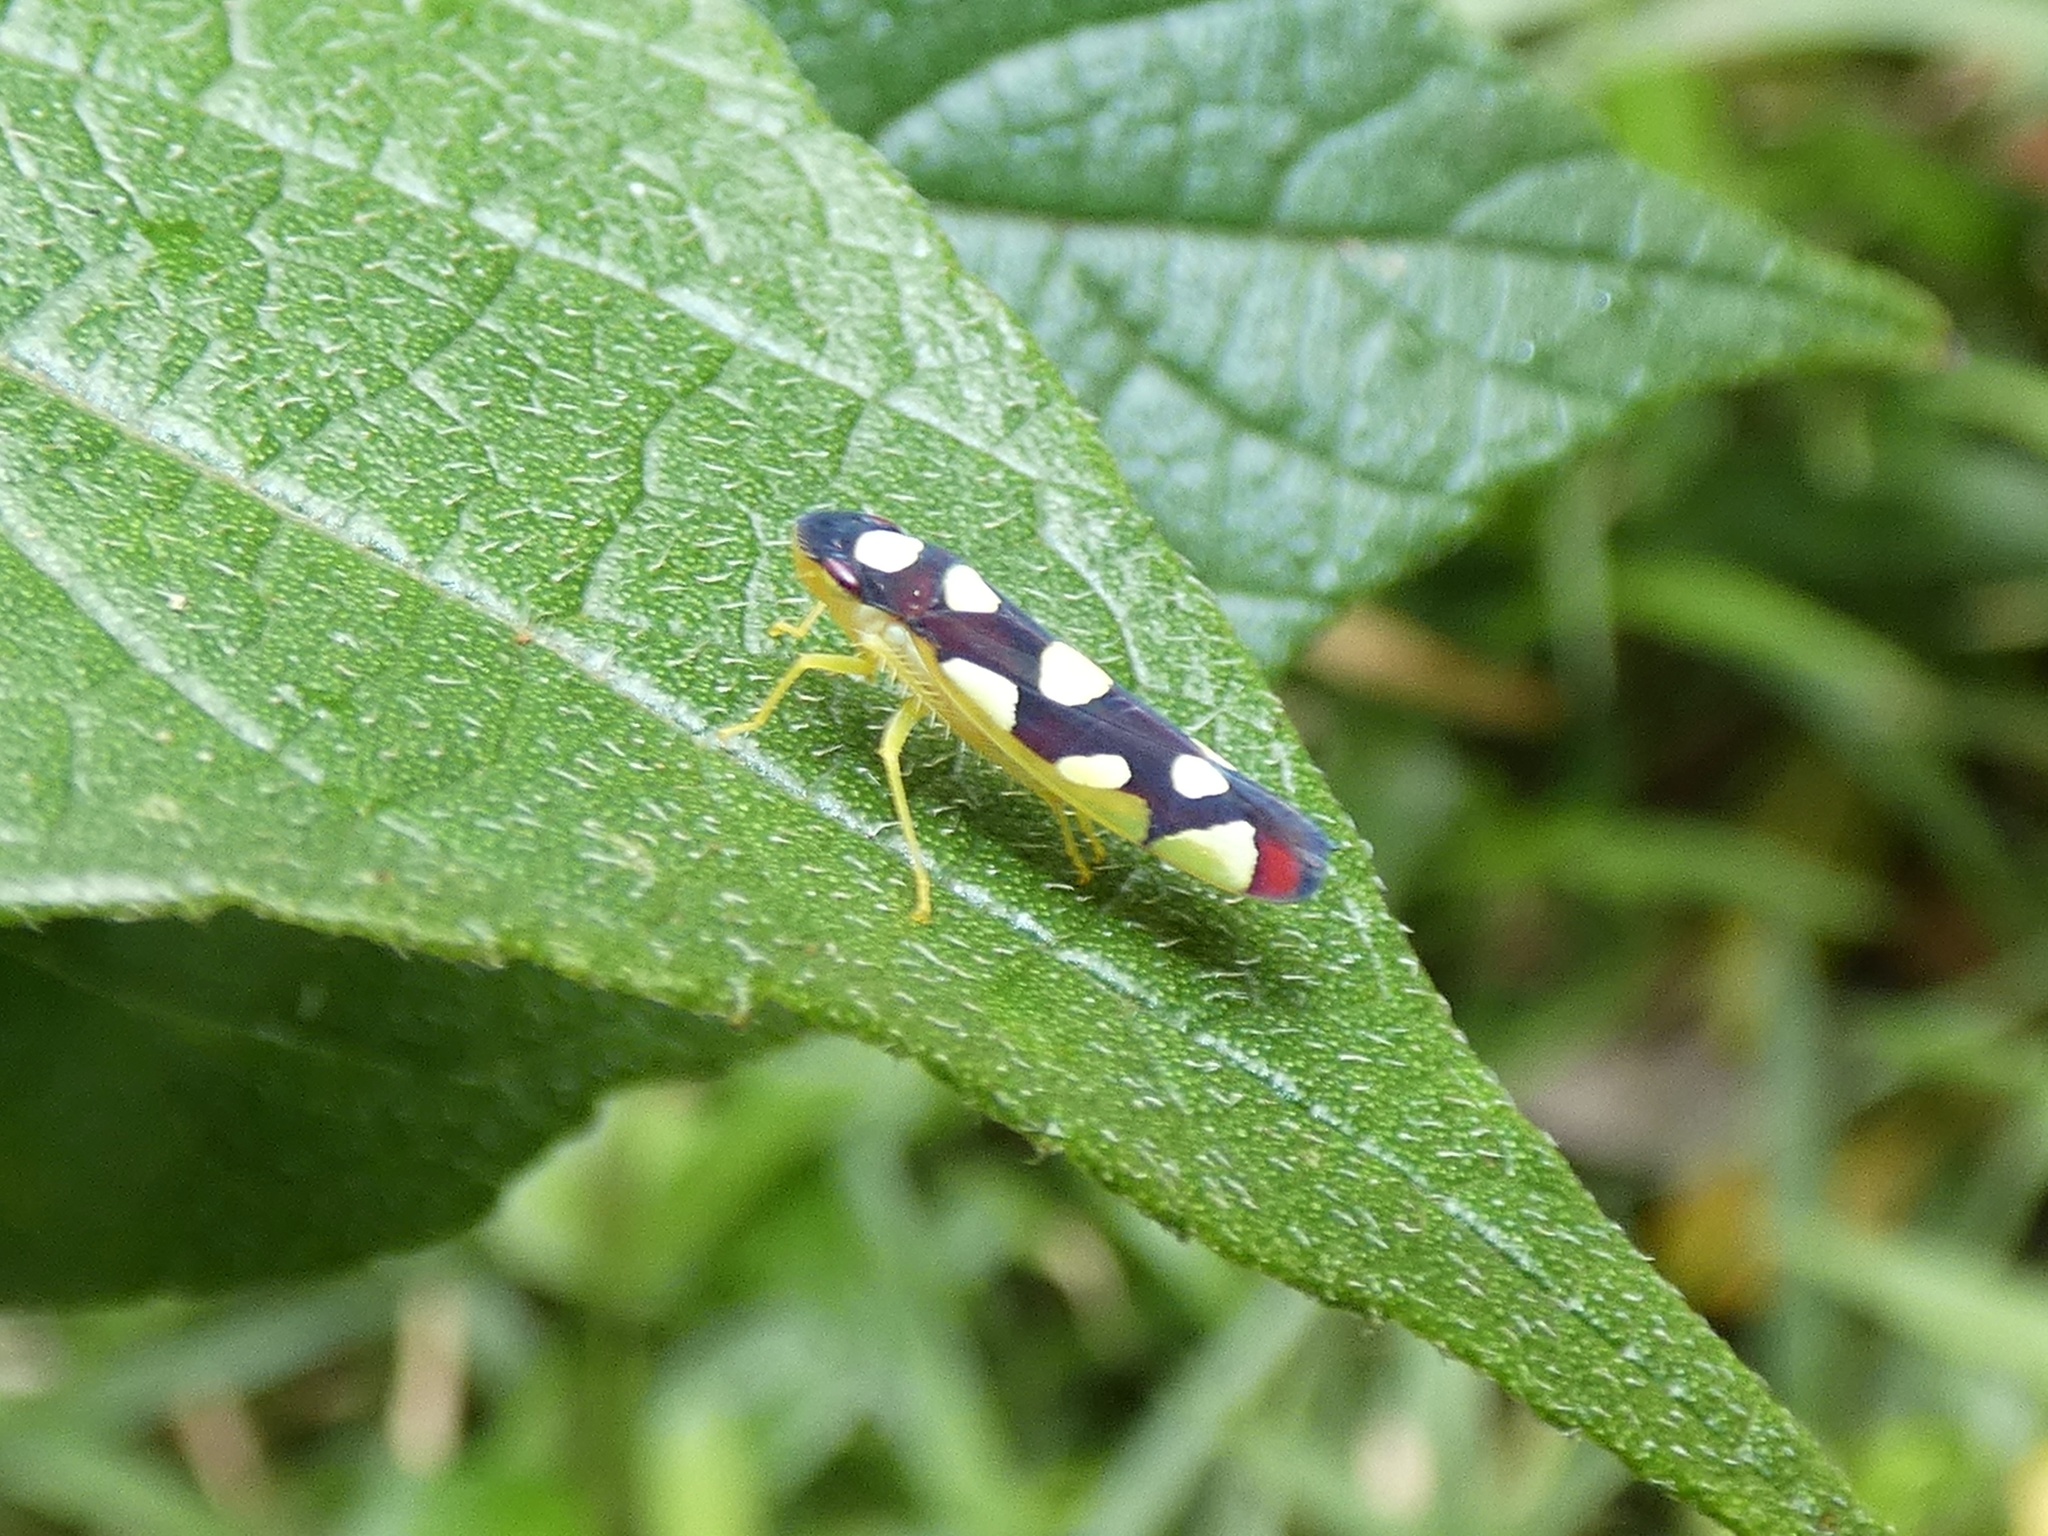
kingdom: Animalia
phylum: Arthropoda
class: Insecta
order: Hemiptera
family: Cicadellidae
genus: Baleja
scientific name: Baleja flavoguttata
